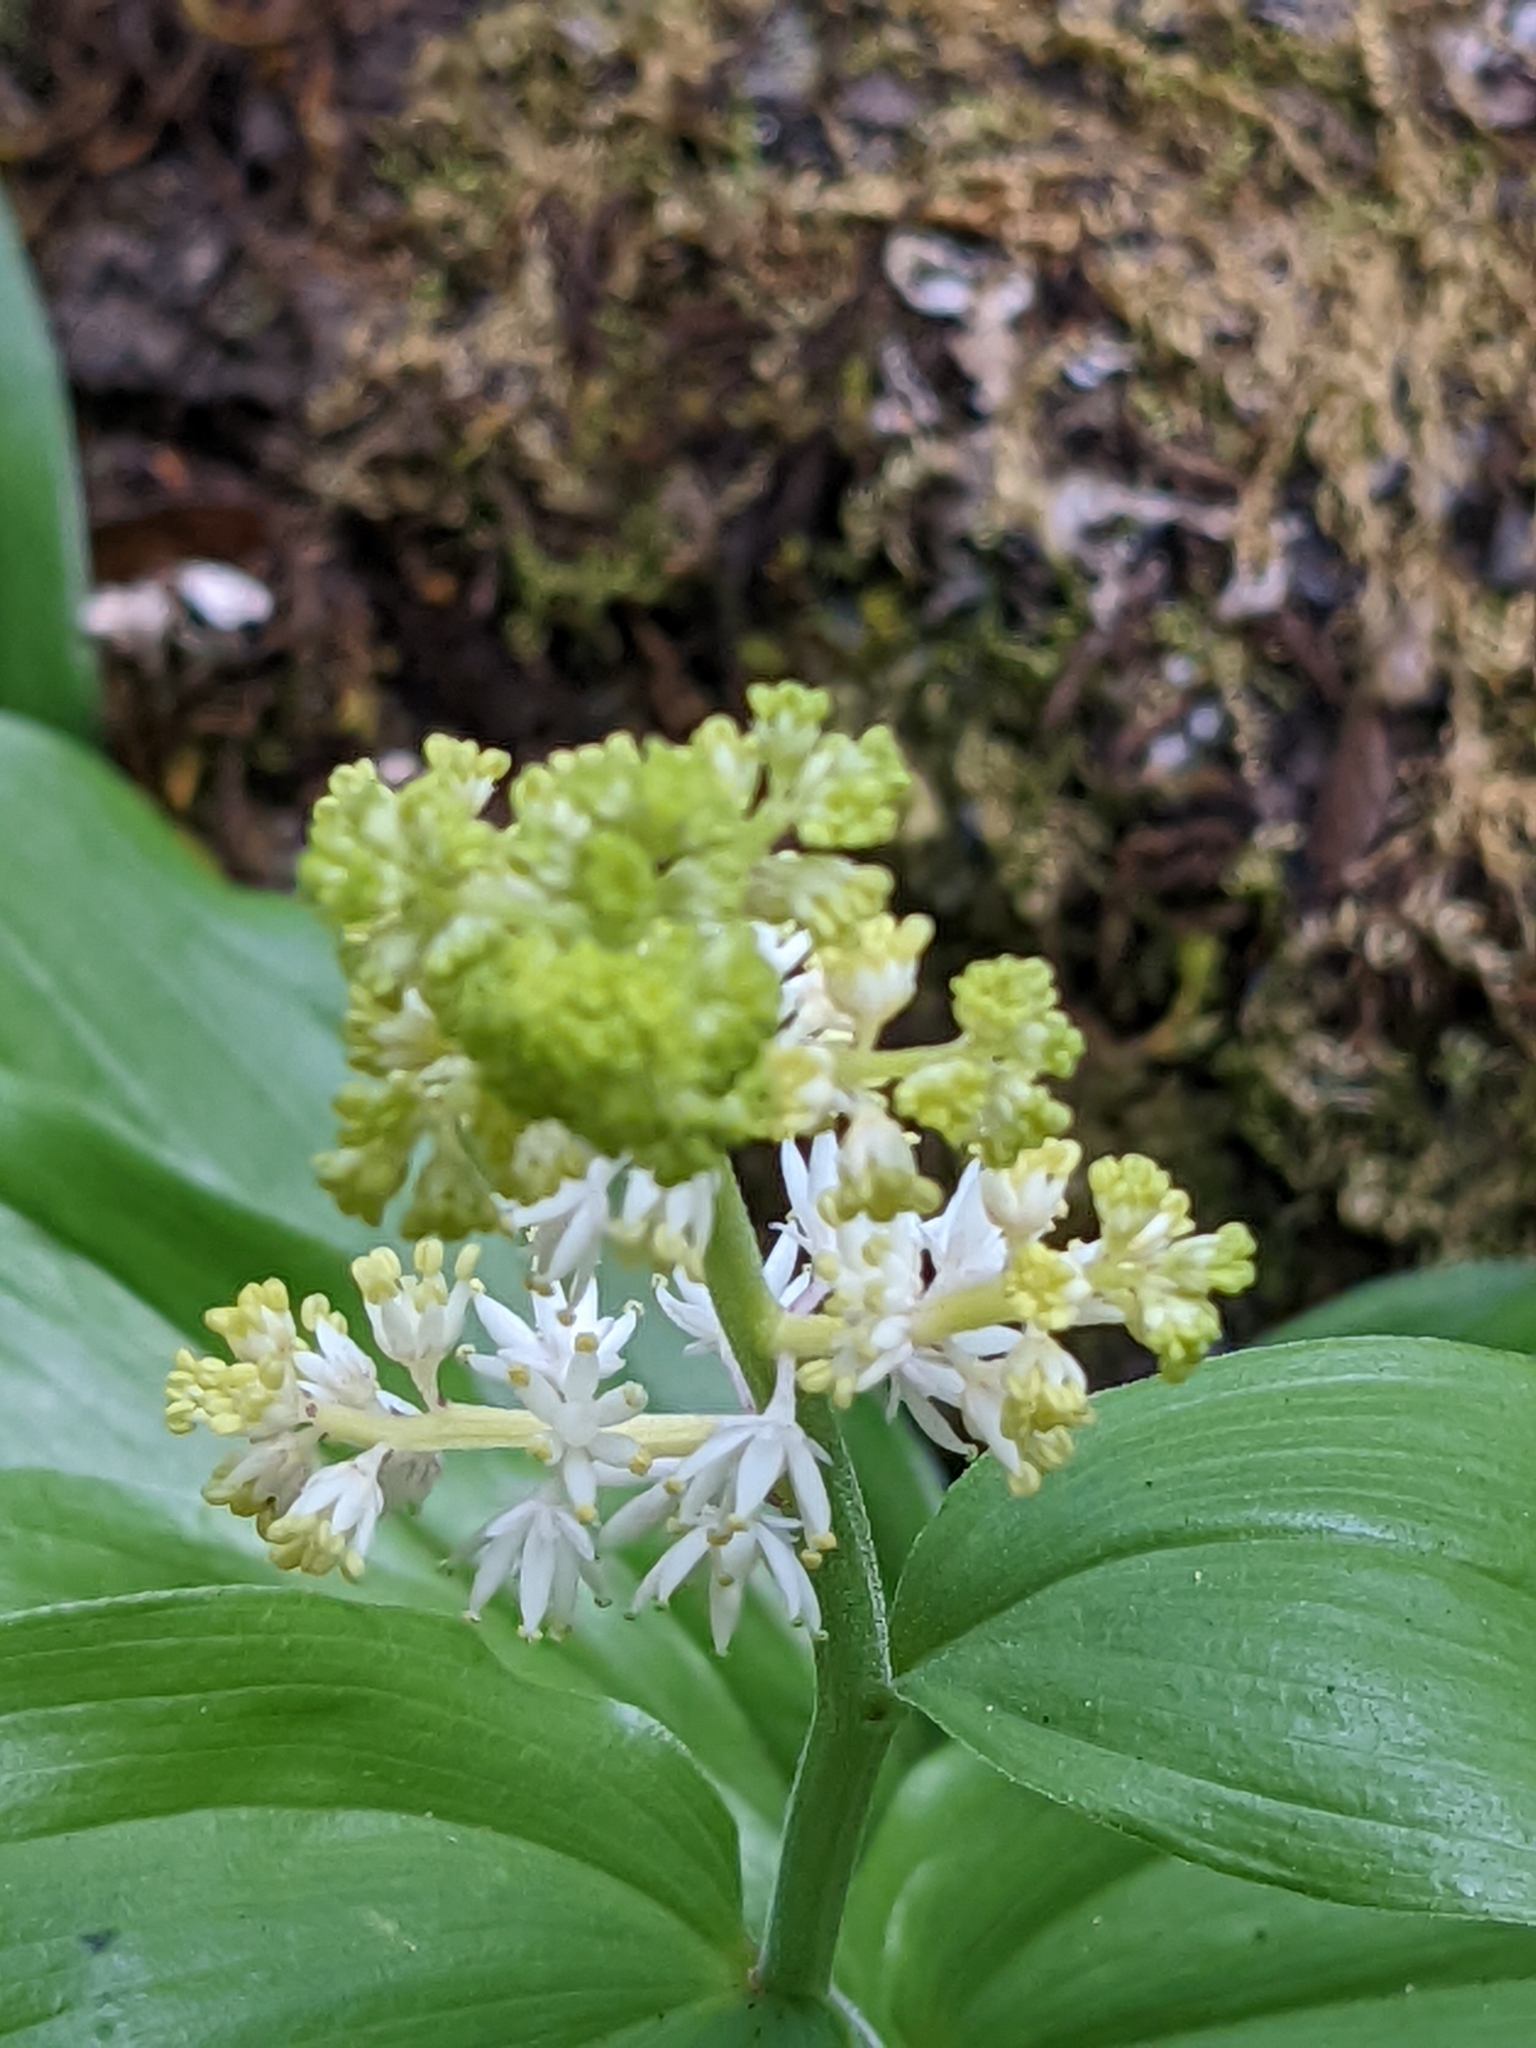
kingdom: Plantae
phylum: Tracheophyta
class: Liliopsida
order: Asparagales
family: Asparagaceae
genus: Maianthemum
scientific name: Maianthemum racemosum
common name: False spikenard
